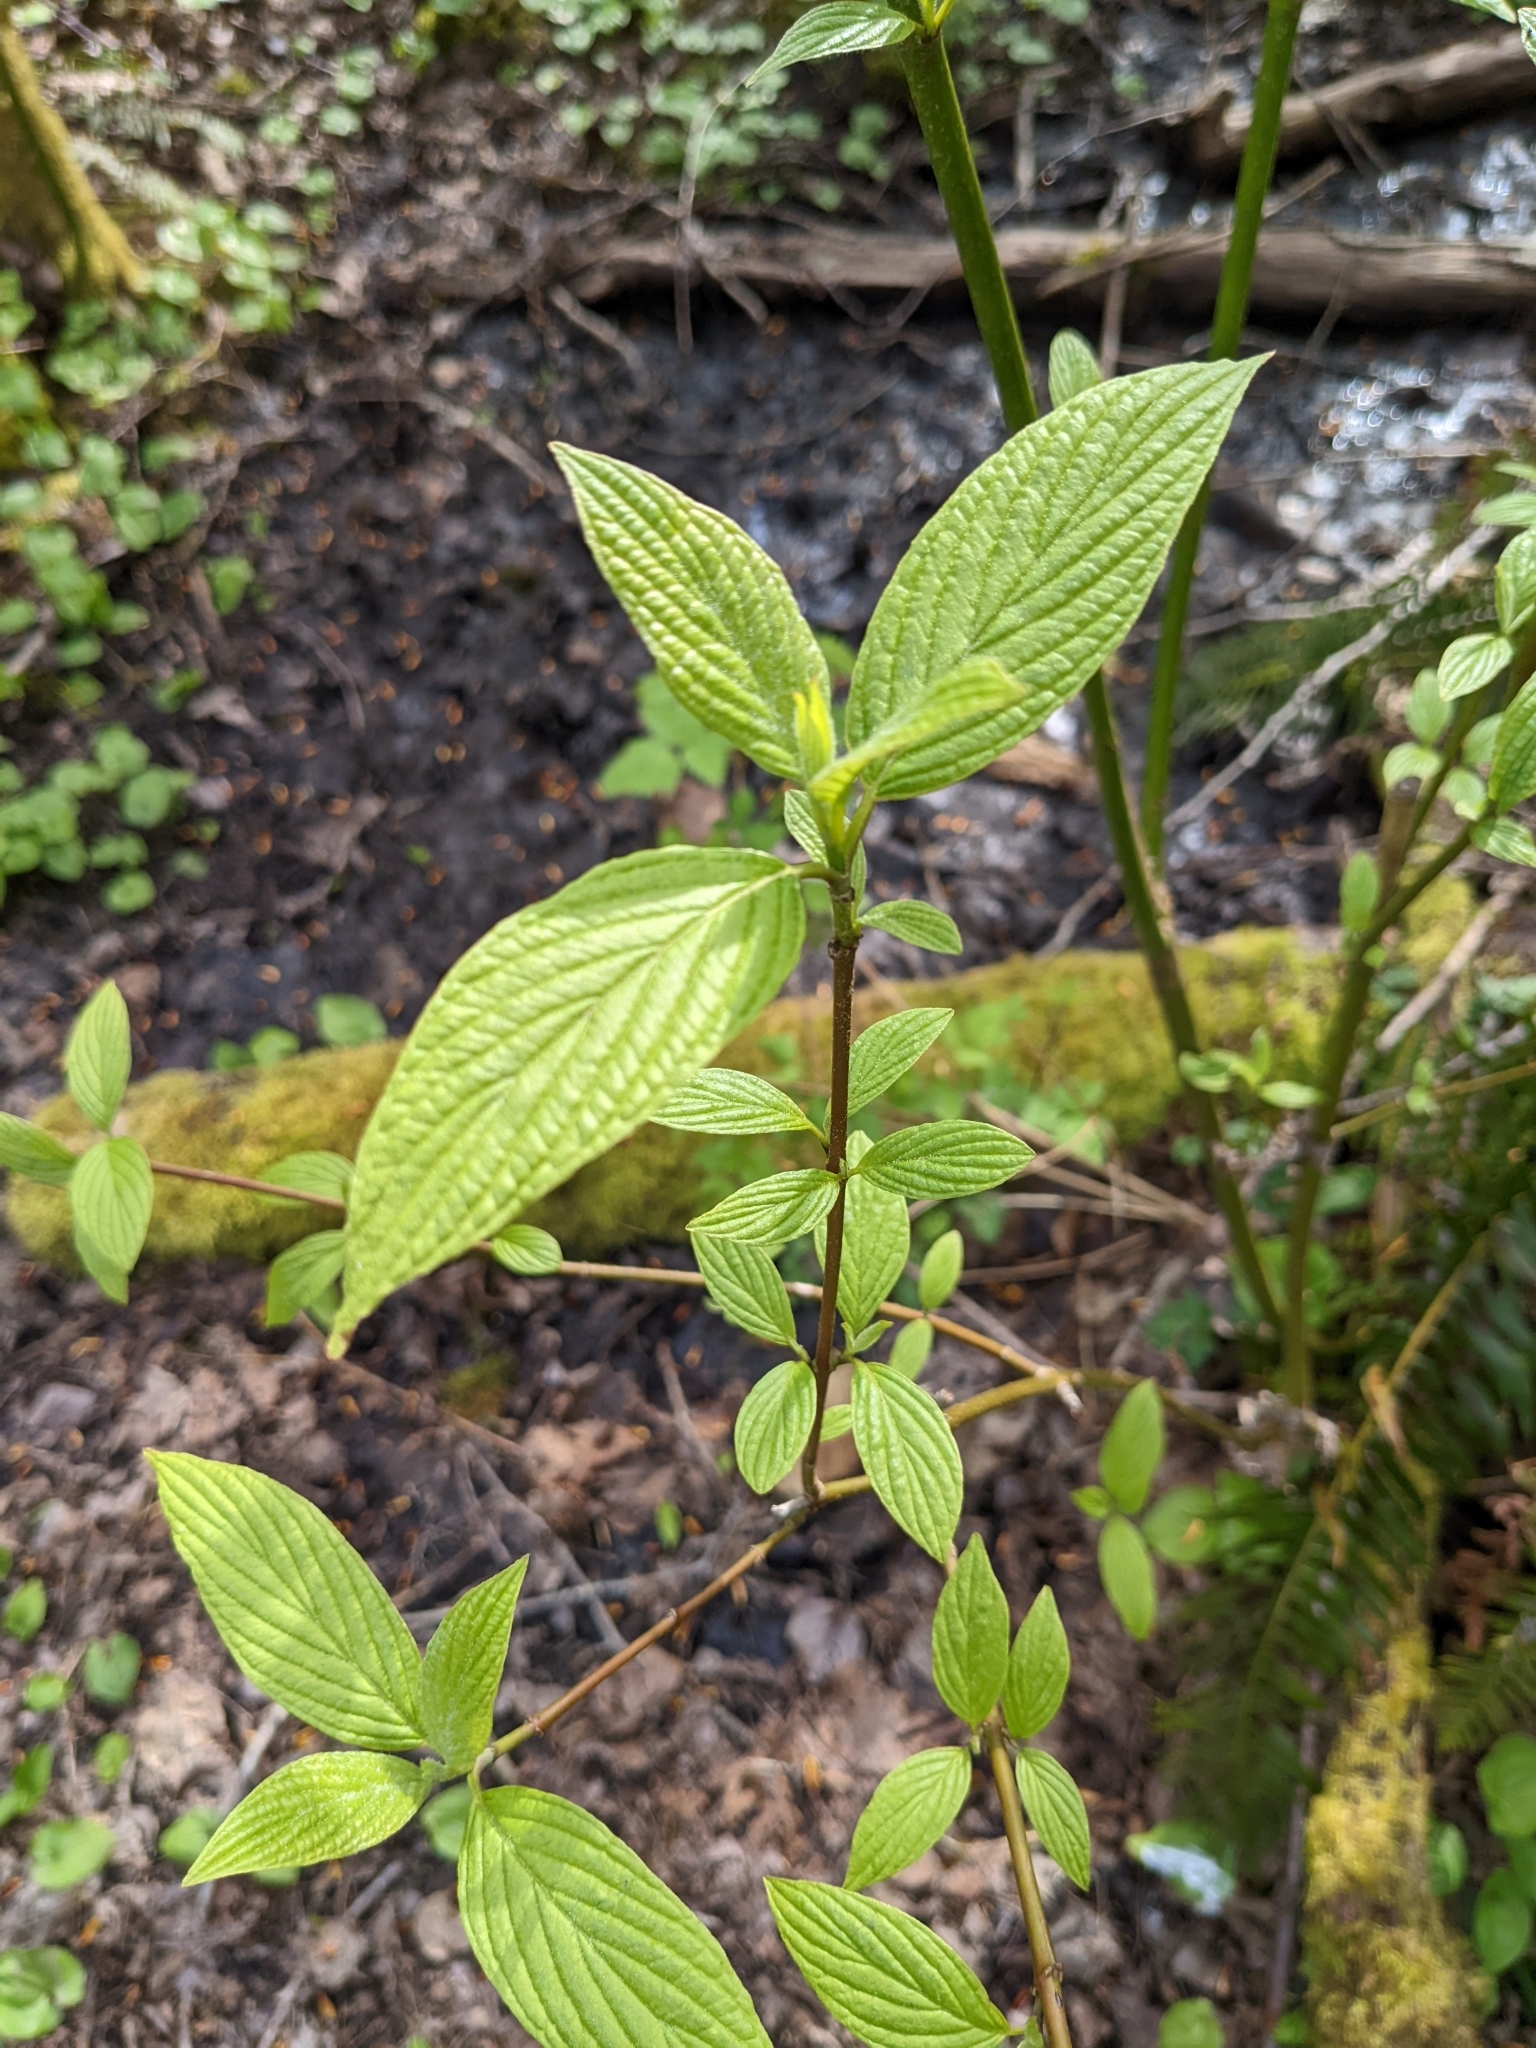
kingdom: Plantae
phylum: Tracheophyta
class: Magnoliopsida
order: Cornales
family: Cornaceae
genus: Cornus
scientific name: Cornus sericea
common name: Red-osier dogwood
